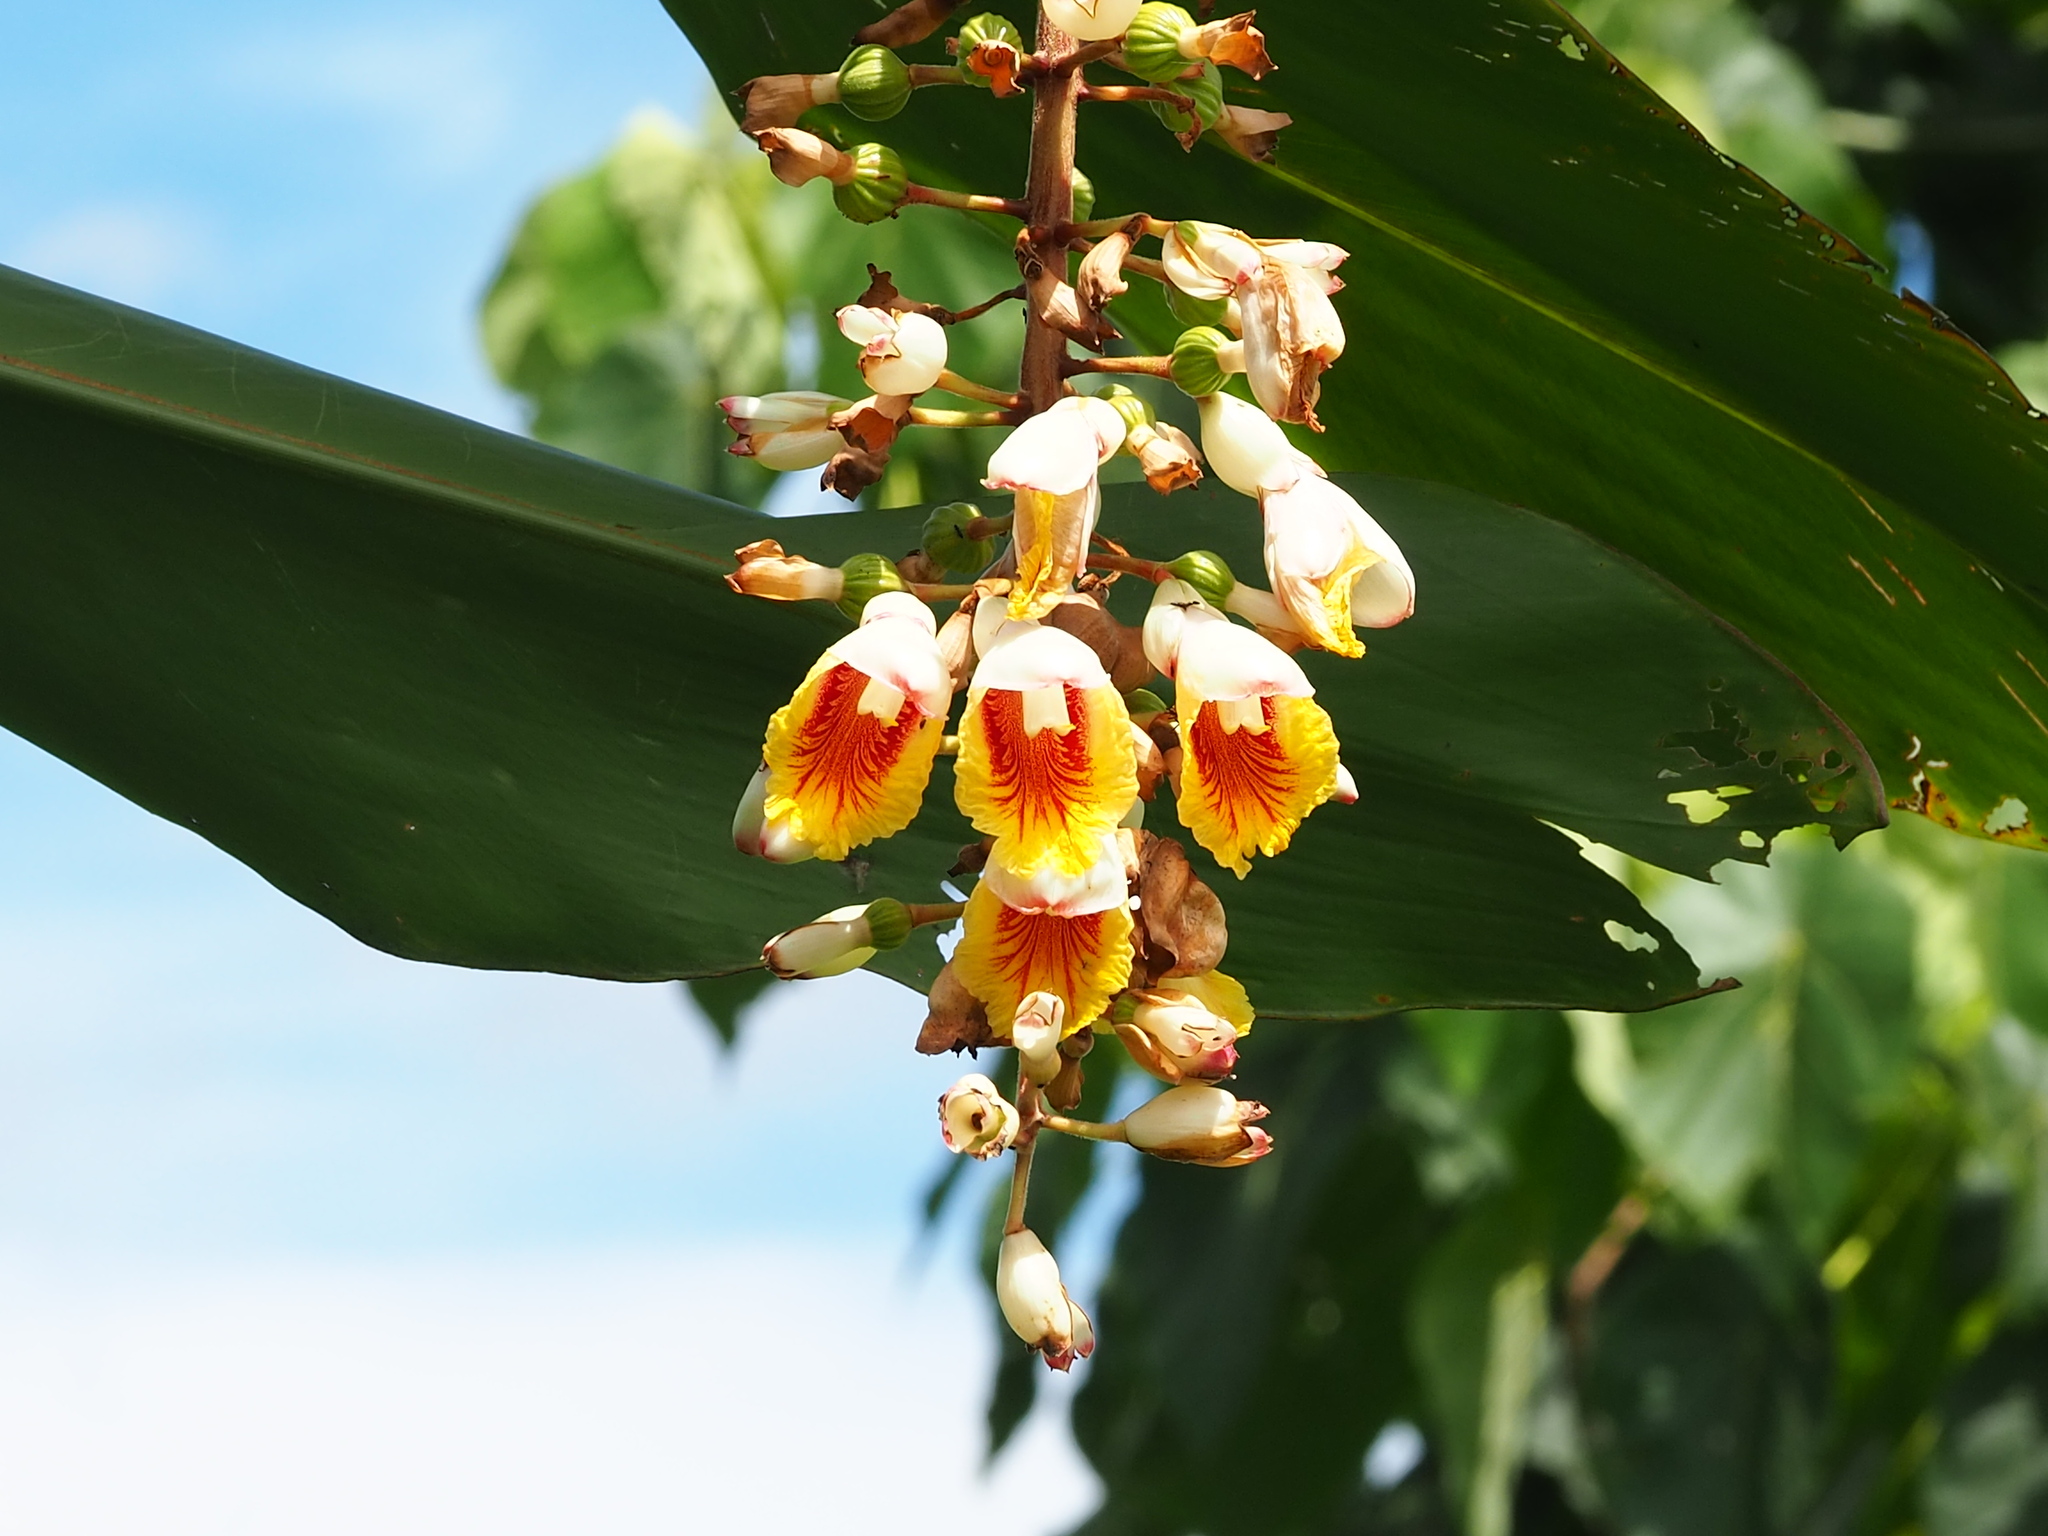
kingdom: Plantae
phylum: Tracheophyta
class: Liliopsida
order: Zingiberales
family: Zingiberaceae
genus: Alpinia
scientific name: Alpinia zerumbet
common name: Shellplant
